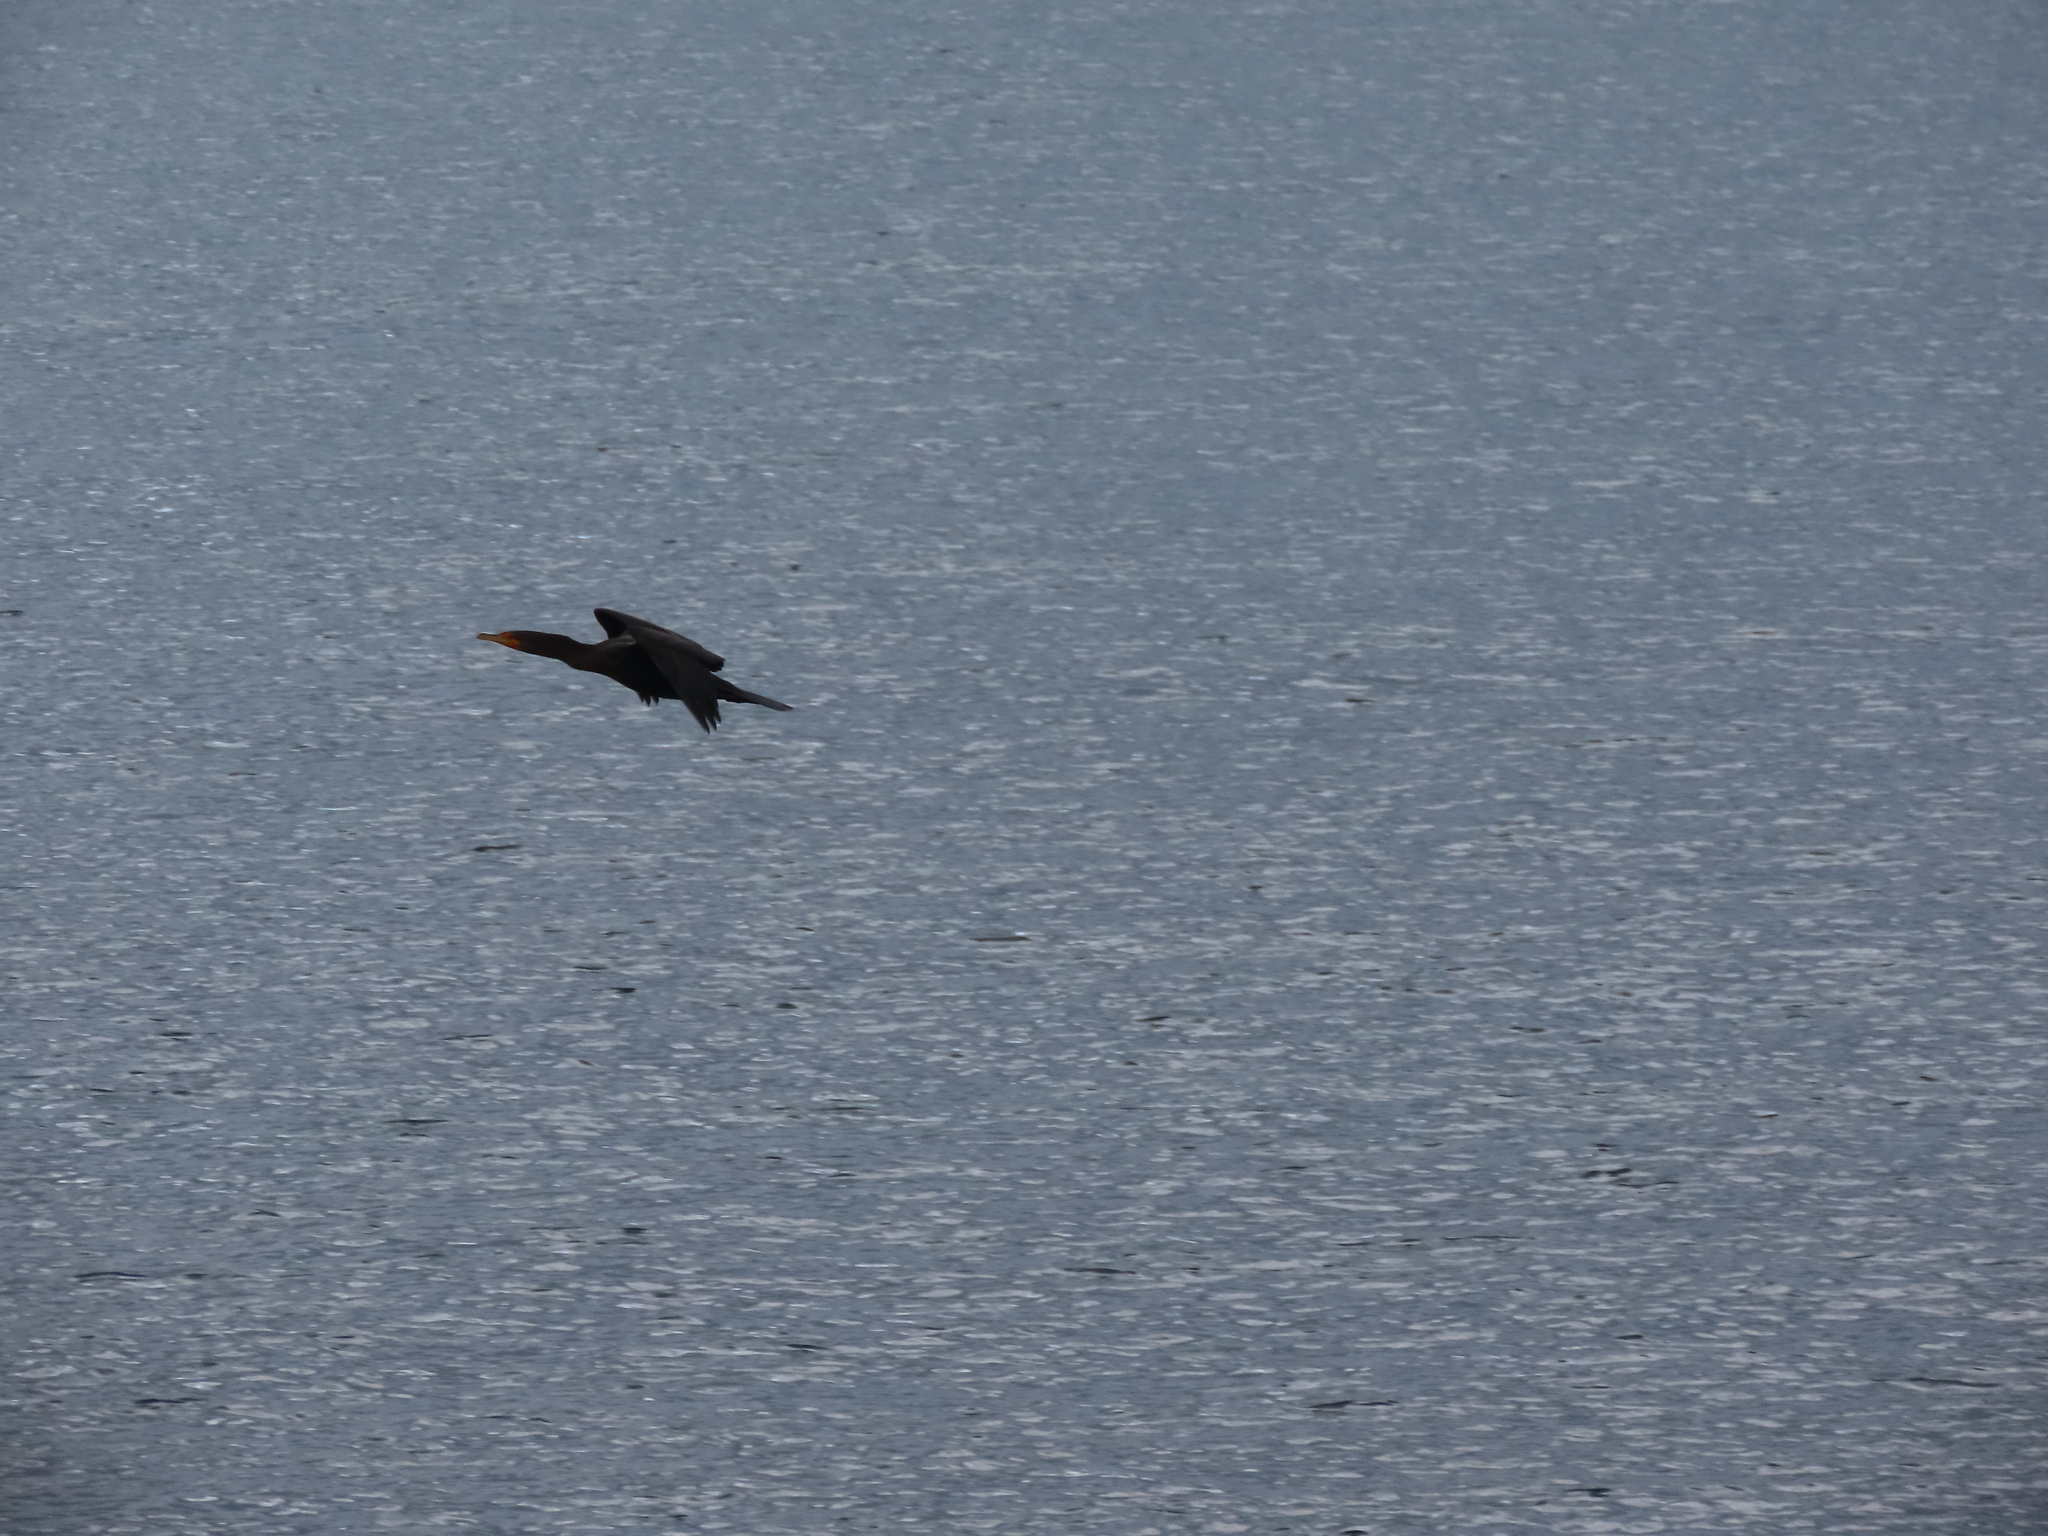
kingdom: Animalia
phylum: Chordata
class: Aves
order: Suliformes
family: Phalacrocoracidae
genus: Phalacrocorax
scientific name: Phalacrocorax auritus
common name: Double-crested cormorant
